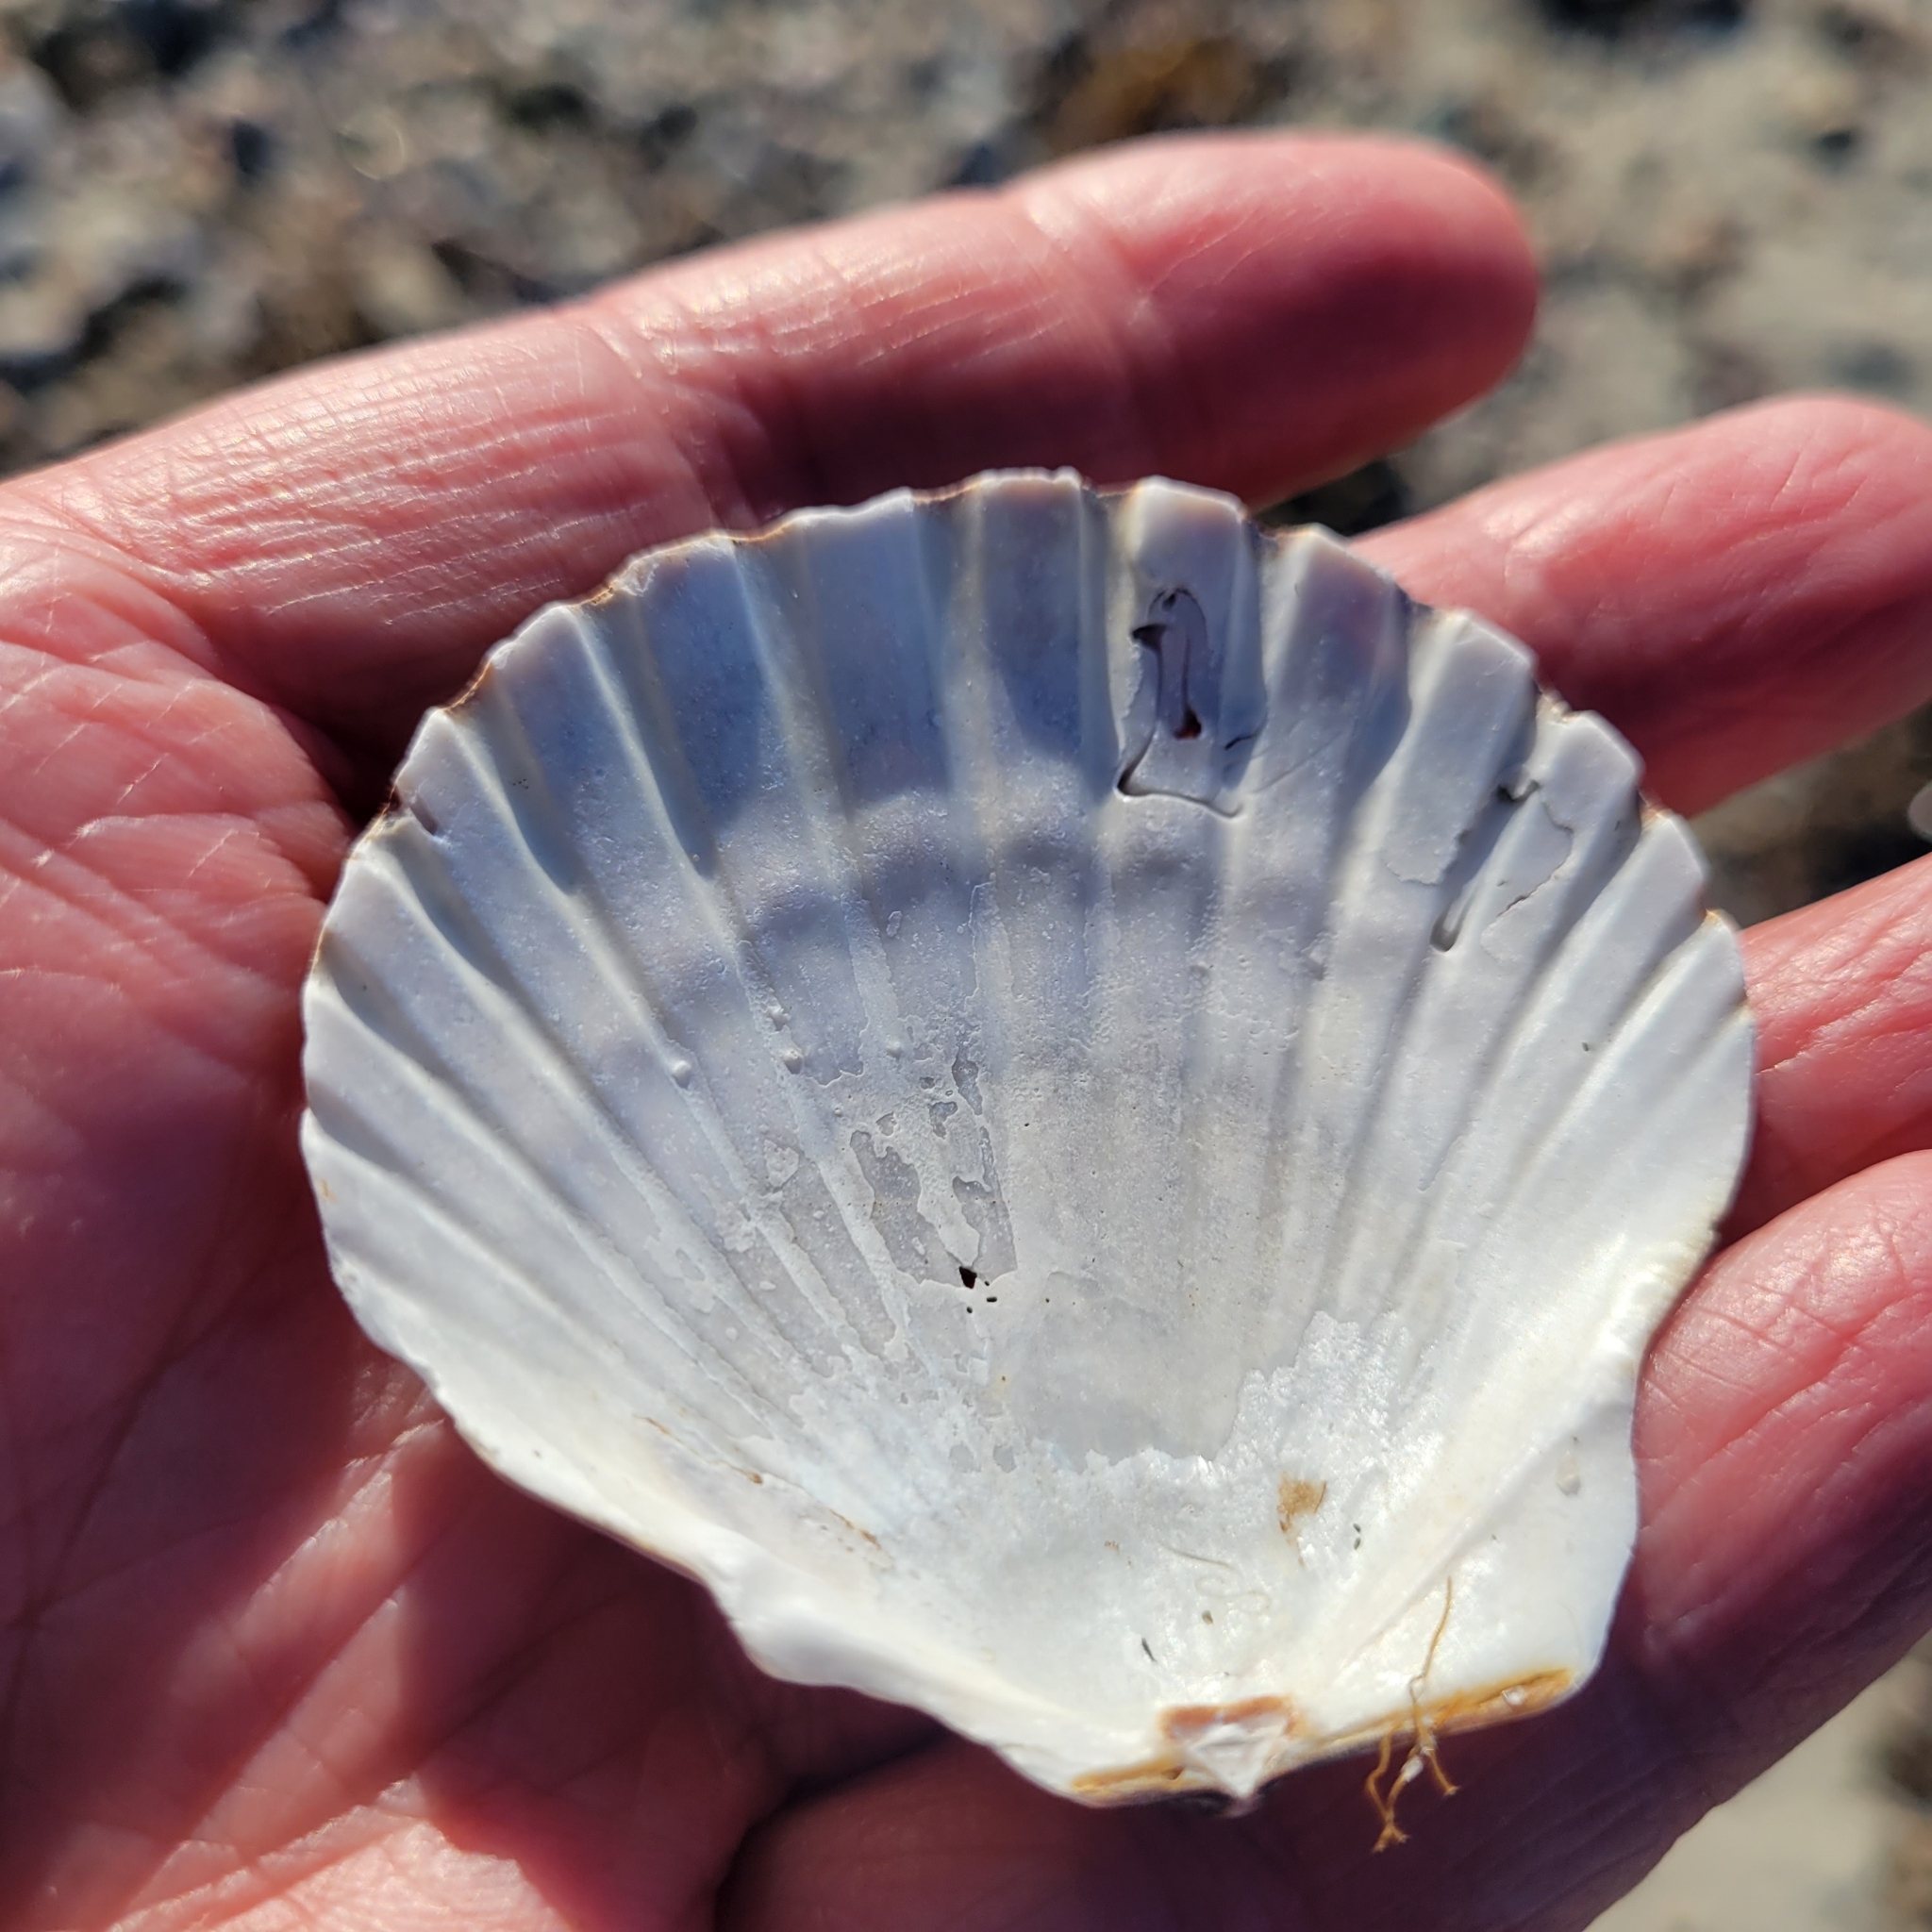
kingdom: Animalia
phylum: Mollusca
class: Bivalvia
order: Pectinida
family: Pectinidae
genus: Argopecten
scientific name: Argopecten irradians
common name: Atlantic bay scallop
